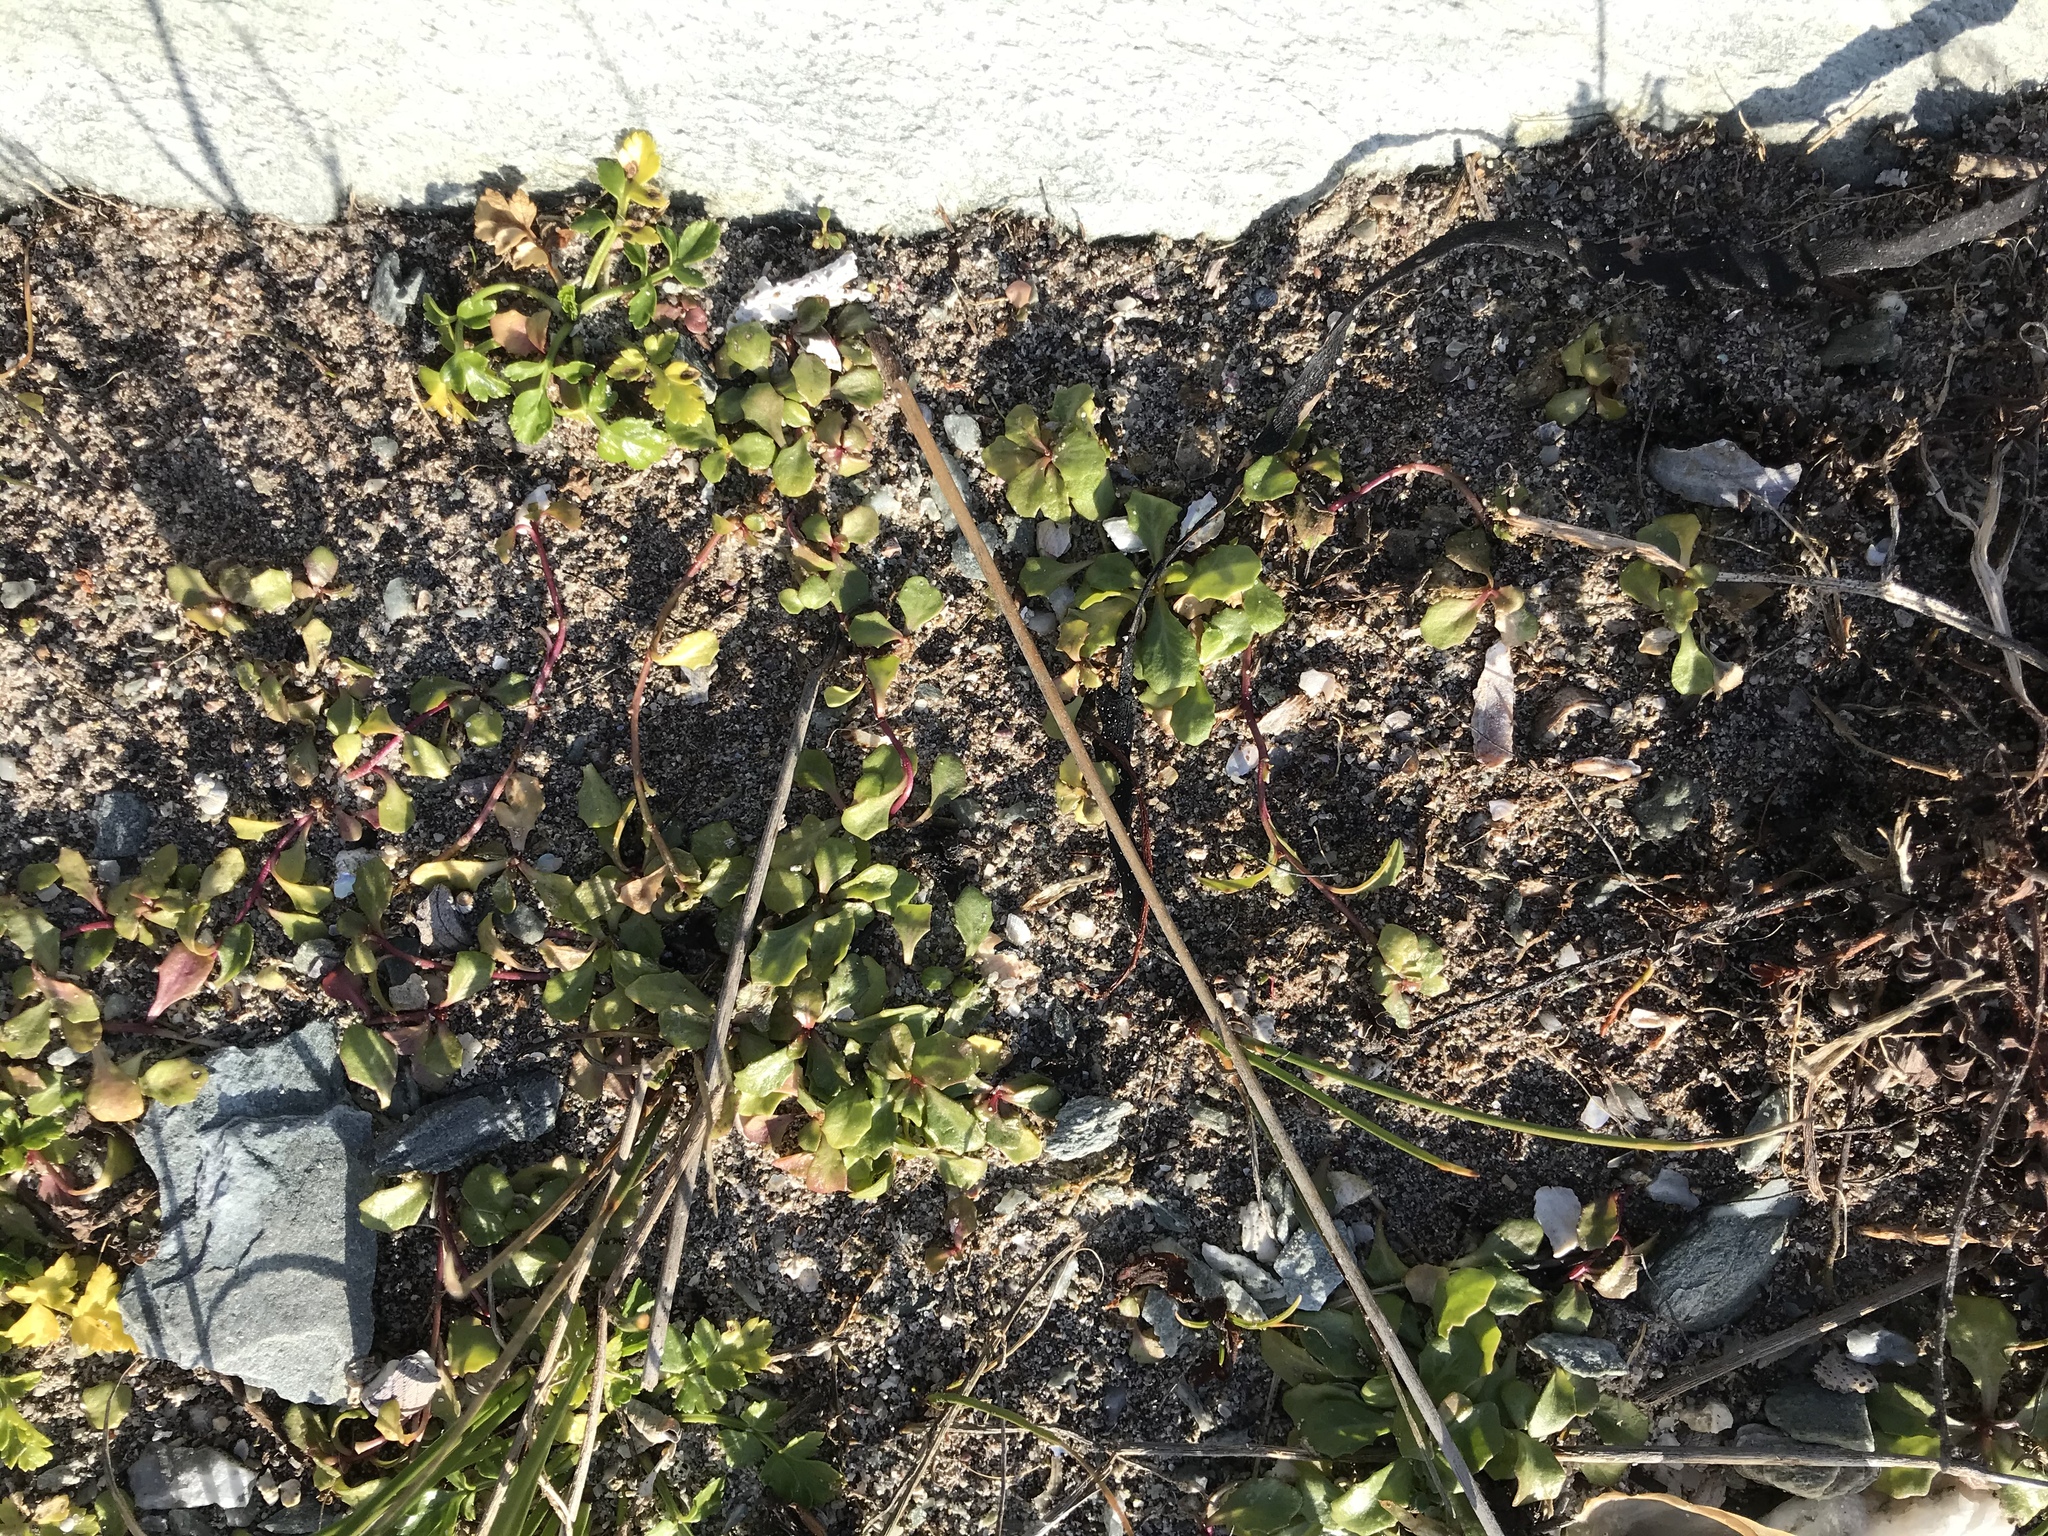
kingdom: Plantae
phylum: Tracheophyta
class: Magnoliopsida
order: Asterales
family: Campanulaceae
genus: Lobelia
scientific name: Lobelia anceps
